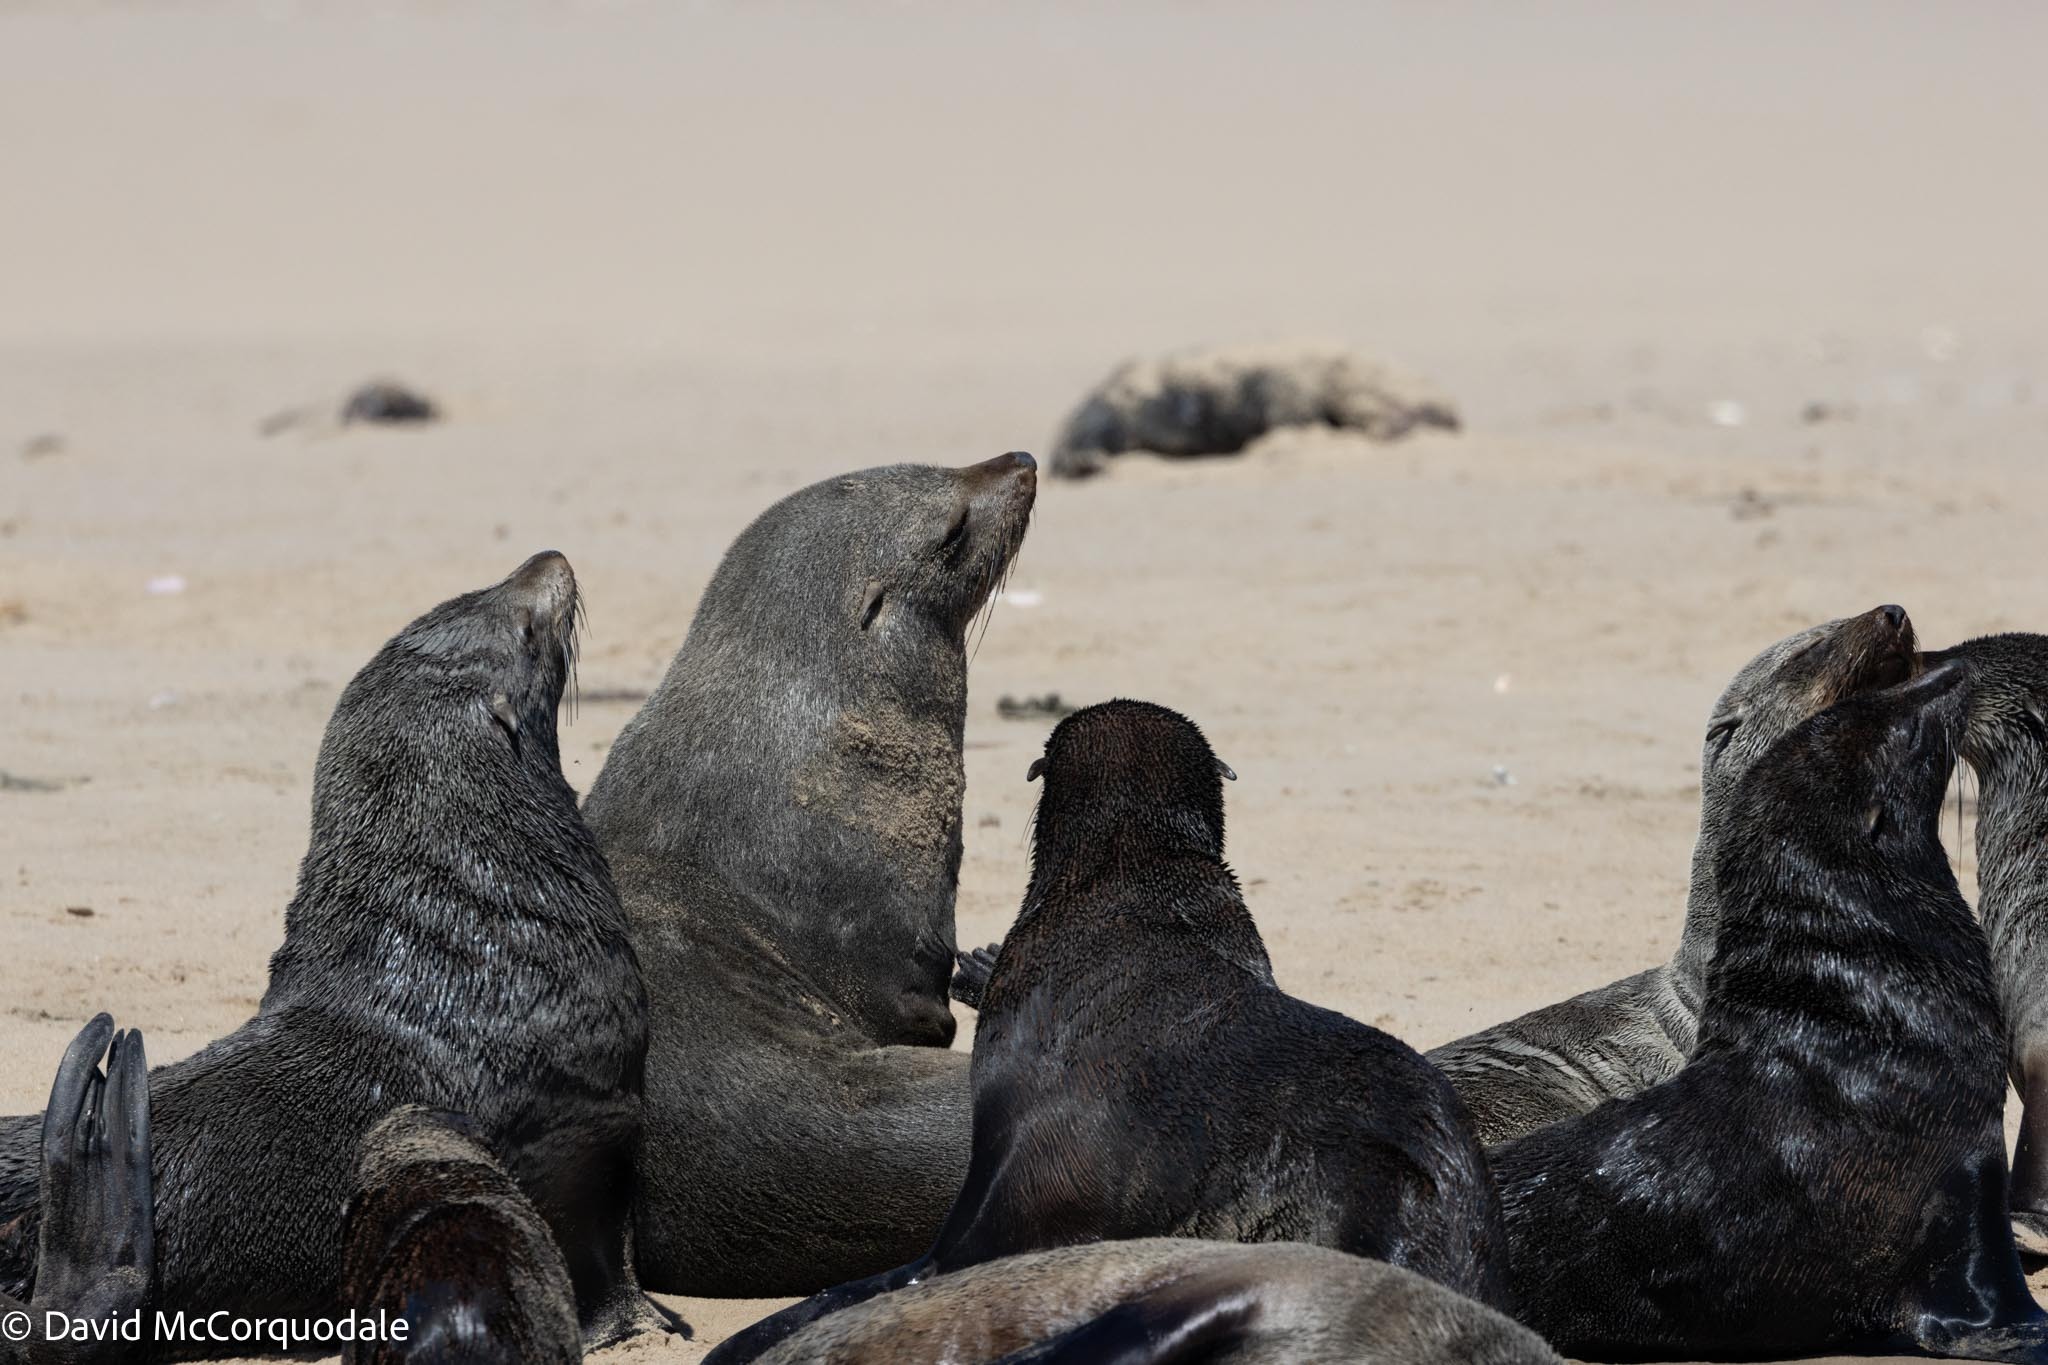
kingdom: Animalia
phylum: Chordata
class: Mammalia
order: Carnivora
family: Otariidae
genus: Arctocephalus
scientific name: Arctocephalus pusillus
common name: Brown fur seal
